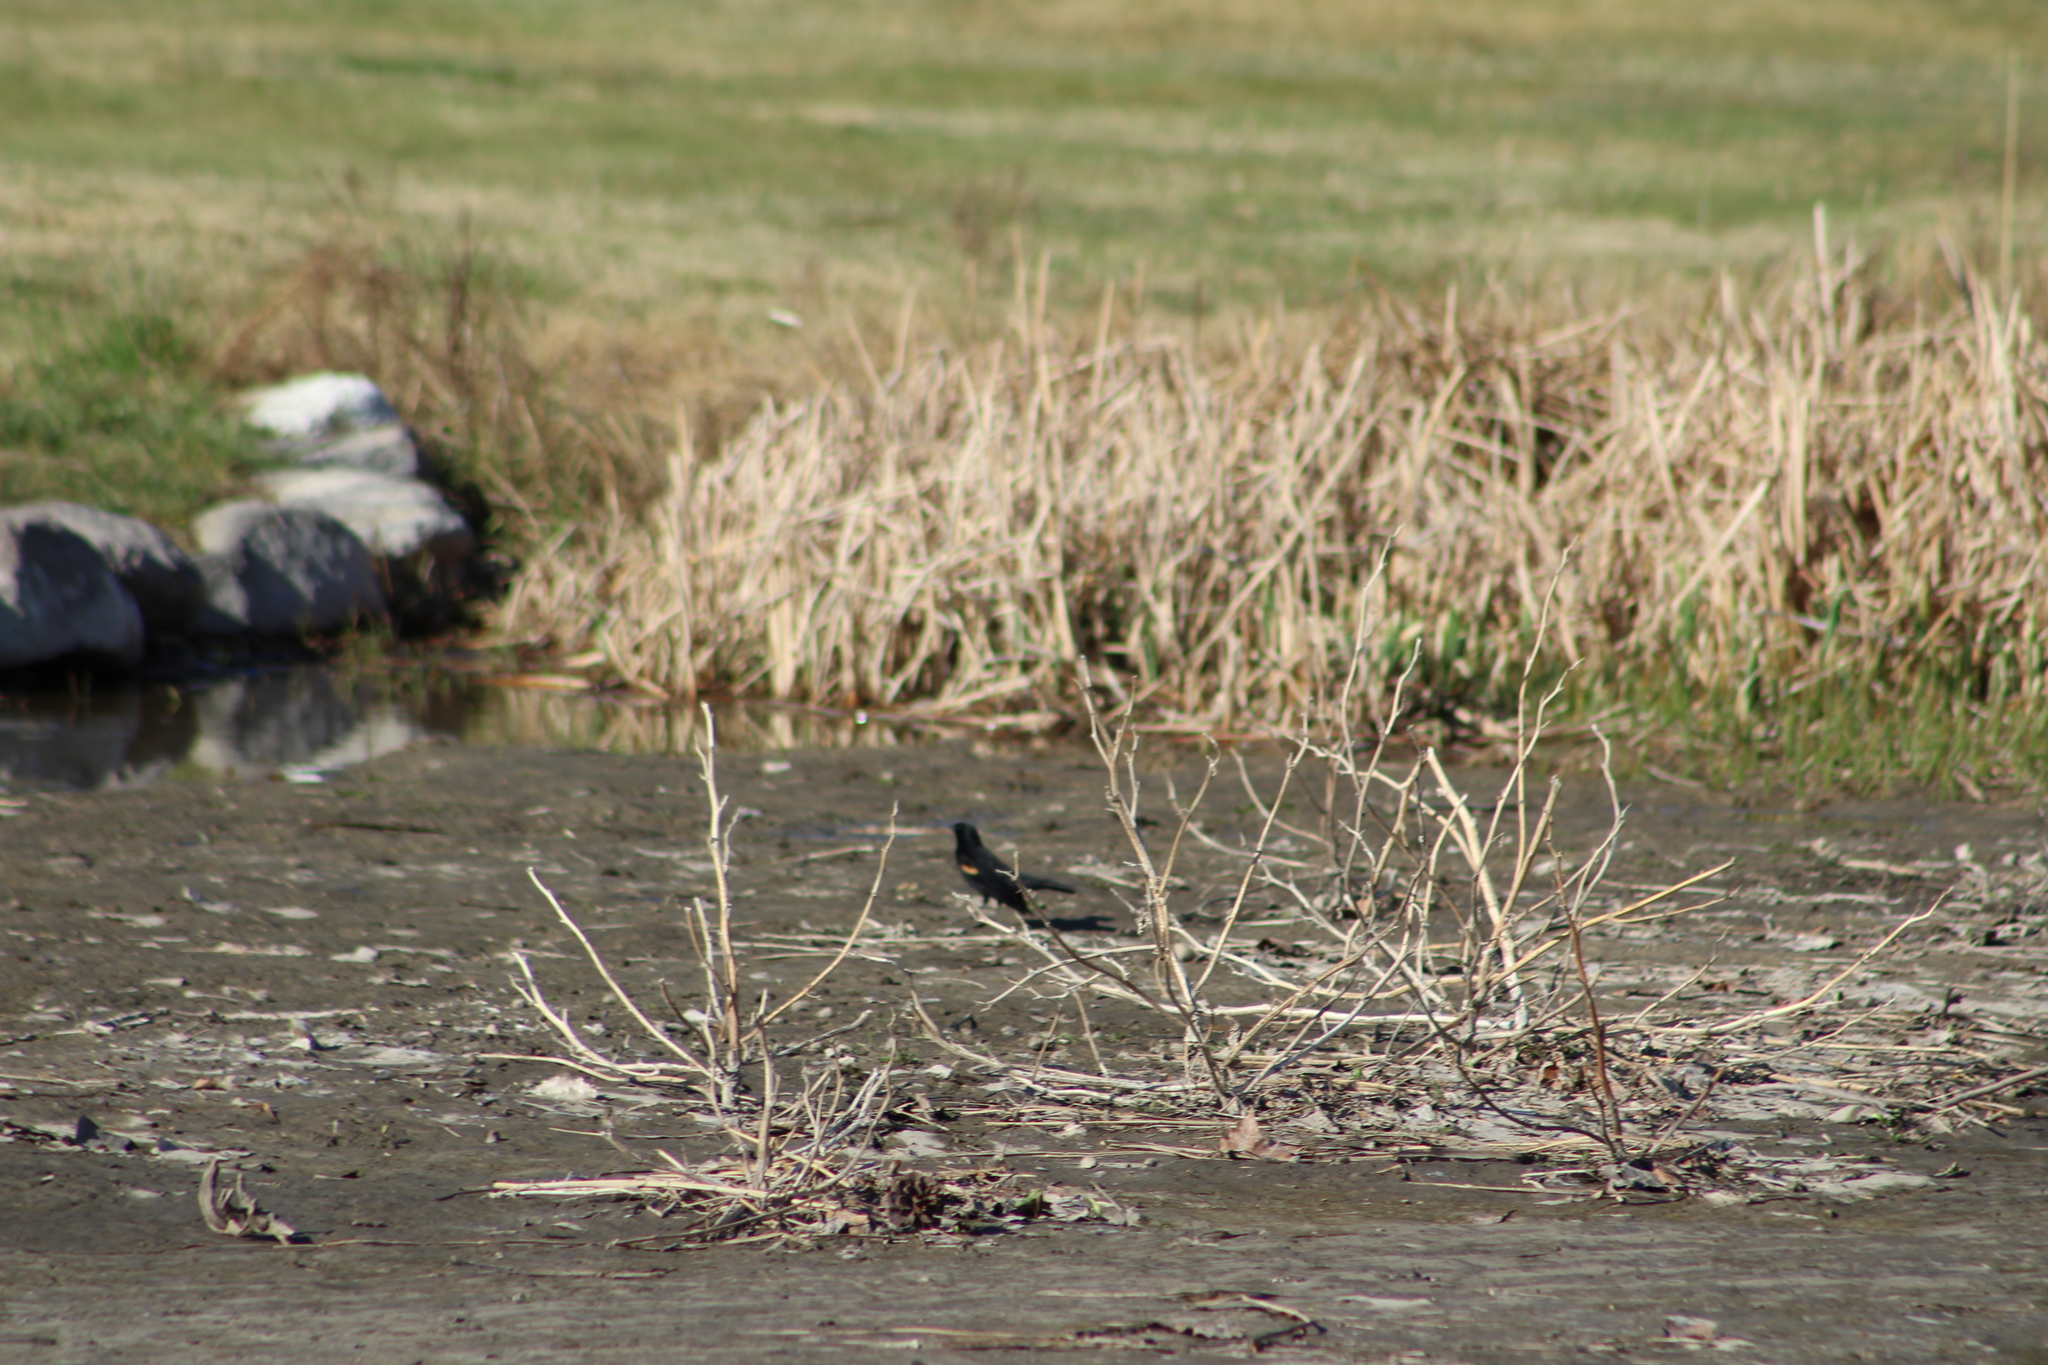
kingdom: Animalia
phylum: Chordata
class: Aves
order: Passeriformes
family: Icteridae
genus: Agelaius
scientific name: Agelaius phoeniceus
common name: Red-winged blackbird
